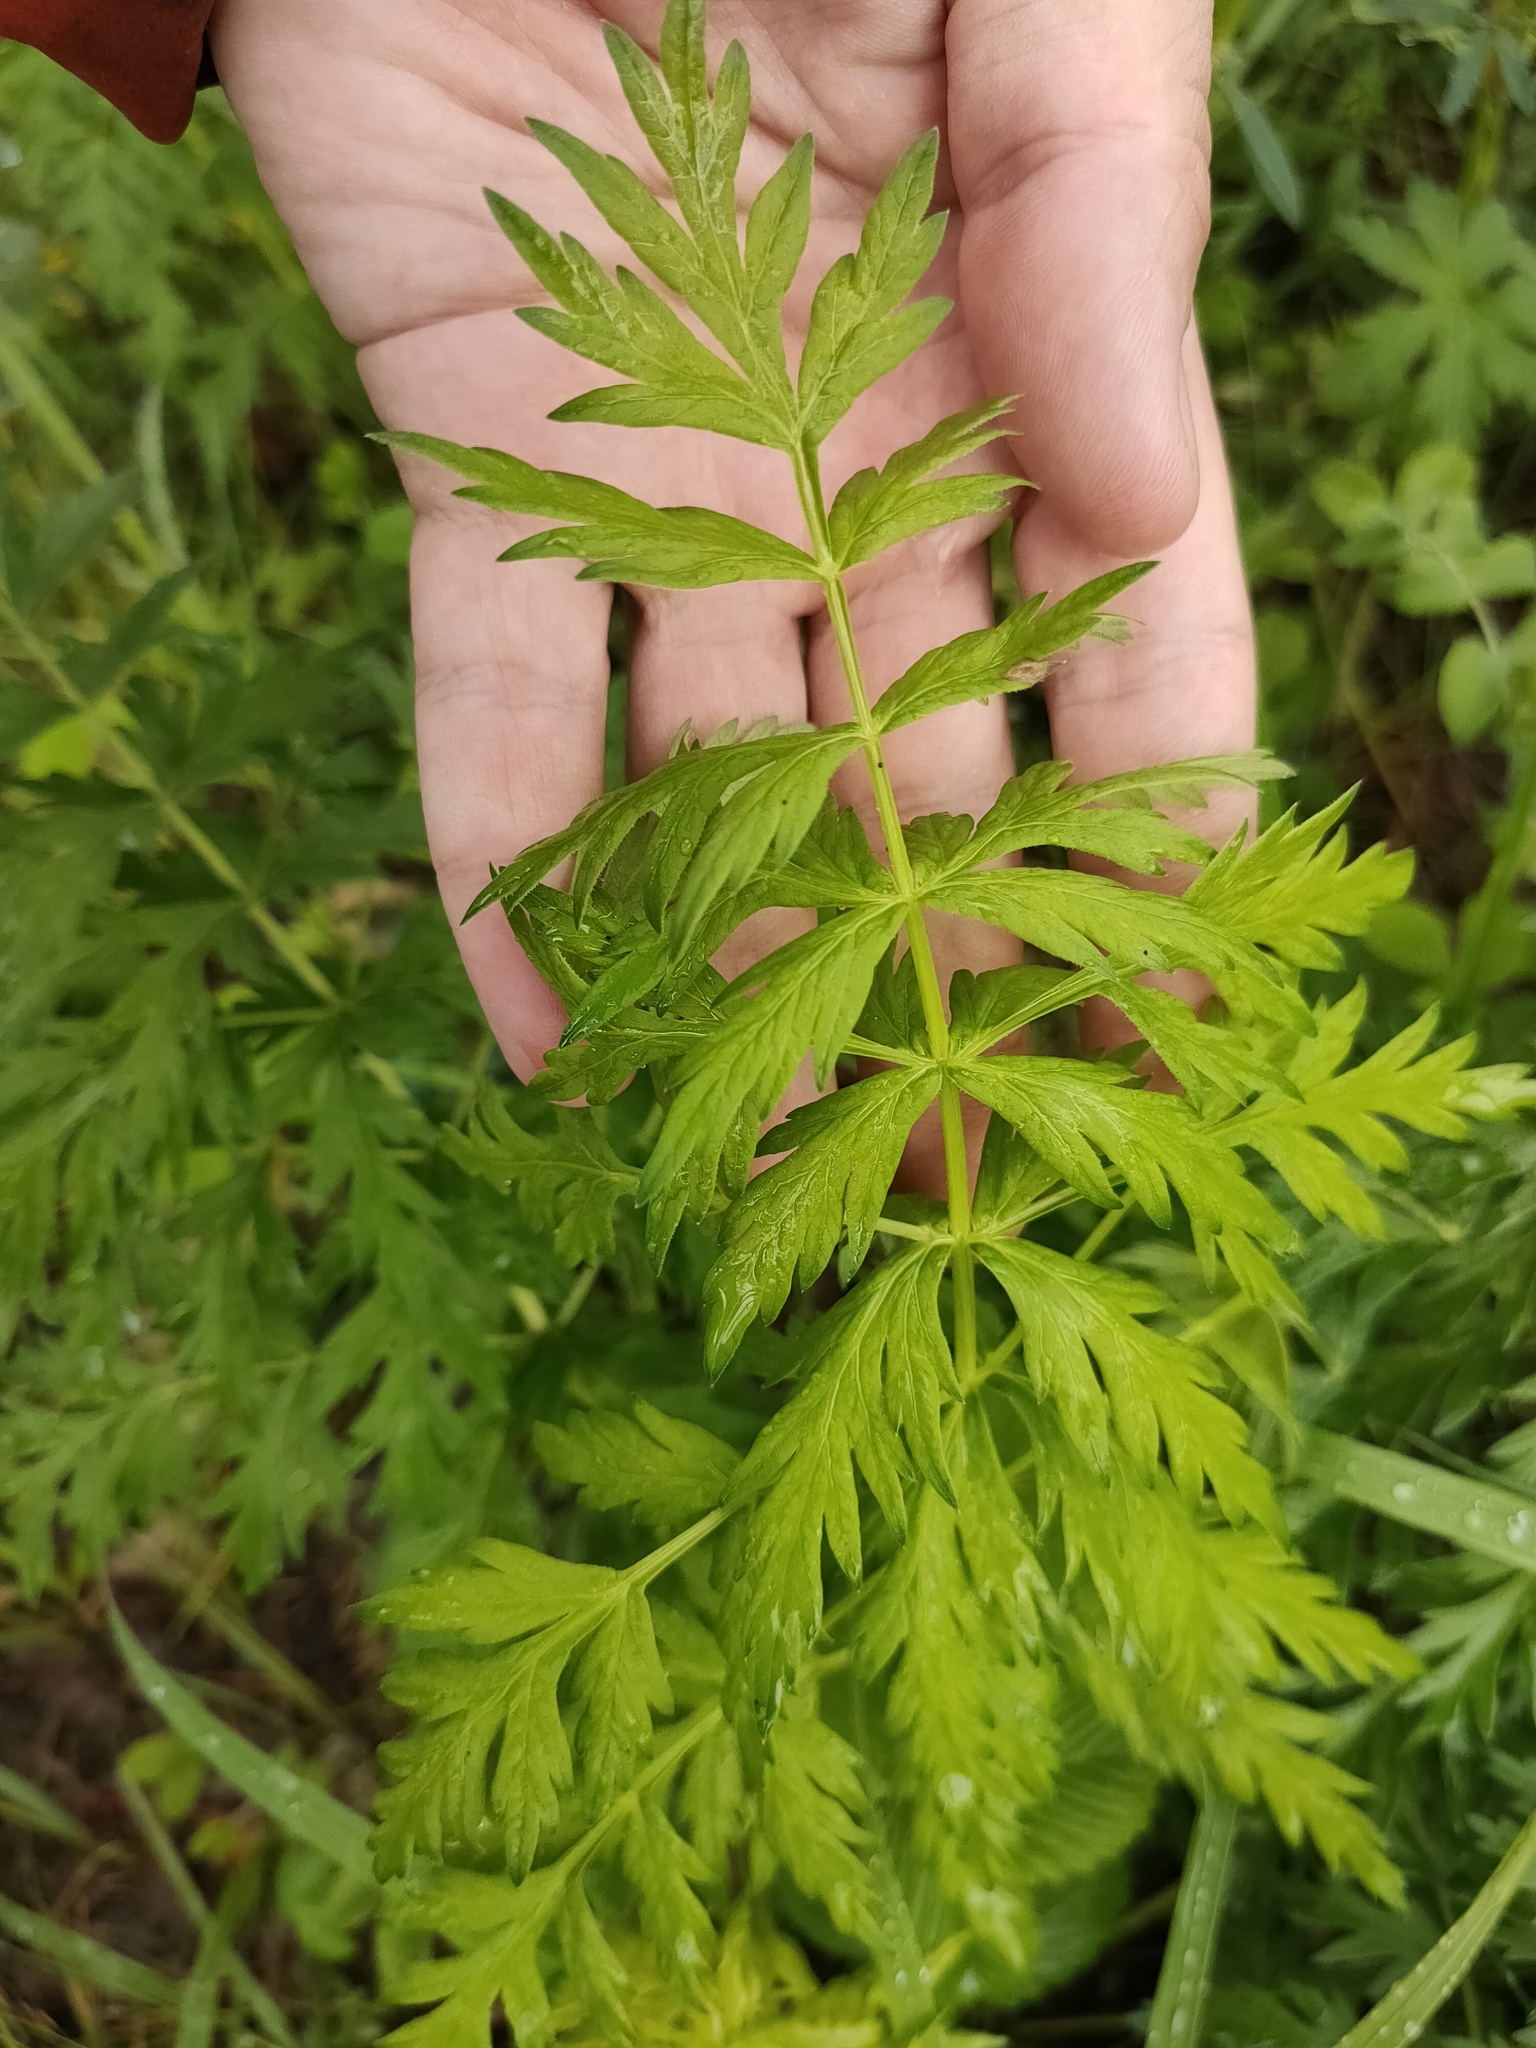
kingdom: Plantae
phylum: Tracheophyta
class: Magnoliopsida
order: Apiales
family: Apiaceae
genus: Seseli
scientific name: Seseli libanotis
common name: Mooncarrot
